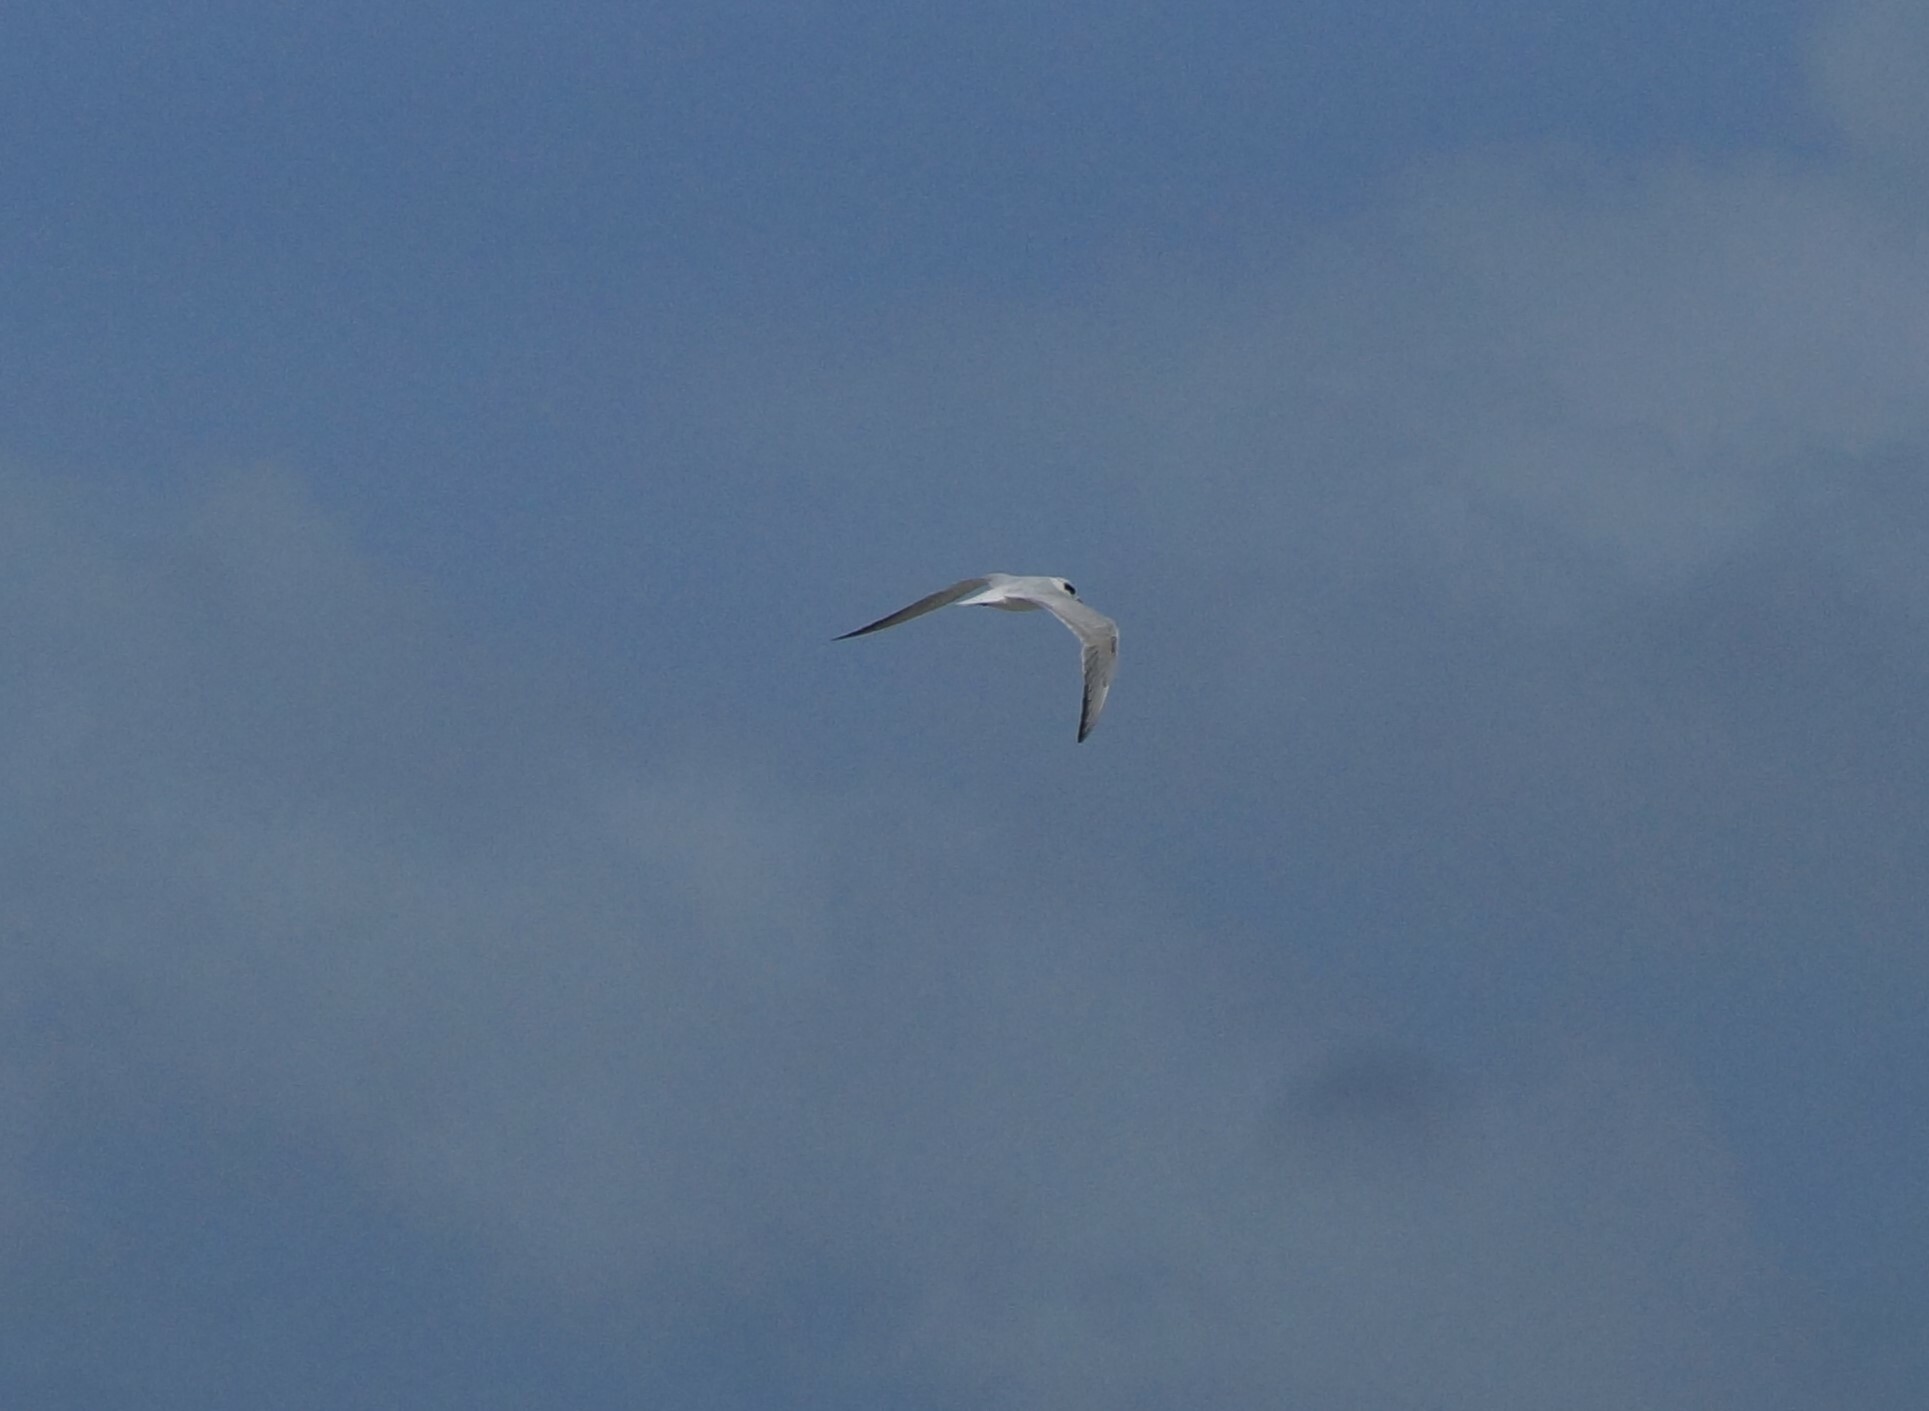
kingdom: Animalia
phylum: Chordata
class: Aves
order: Charadriiformes
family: Laridae
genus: Gelochelidon
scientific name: Gelochelidon macrotarsa
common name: Australian tern
